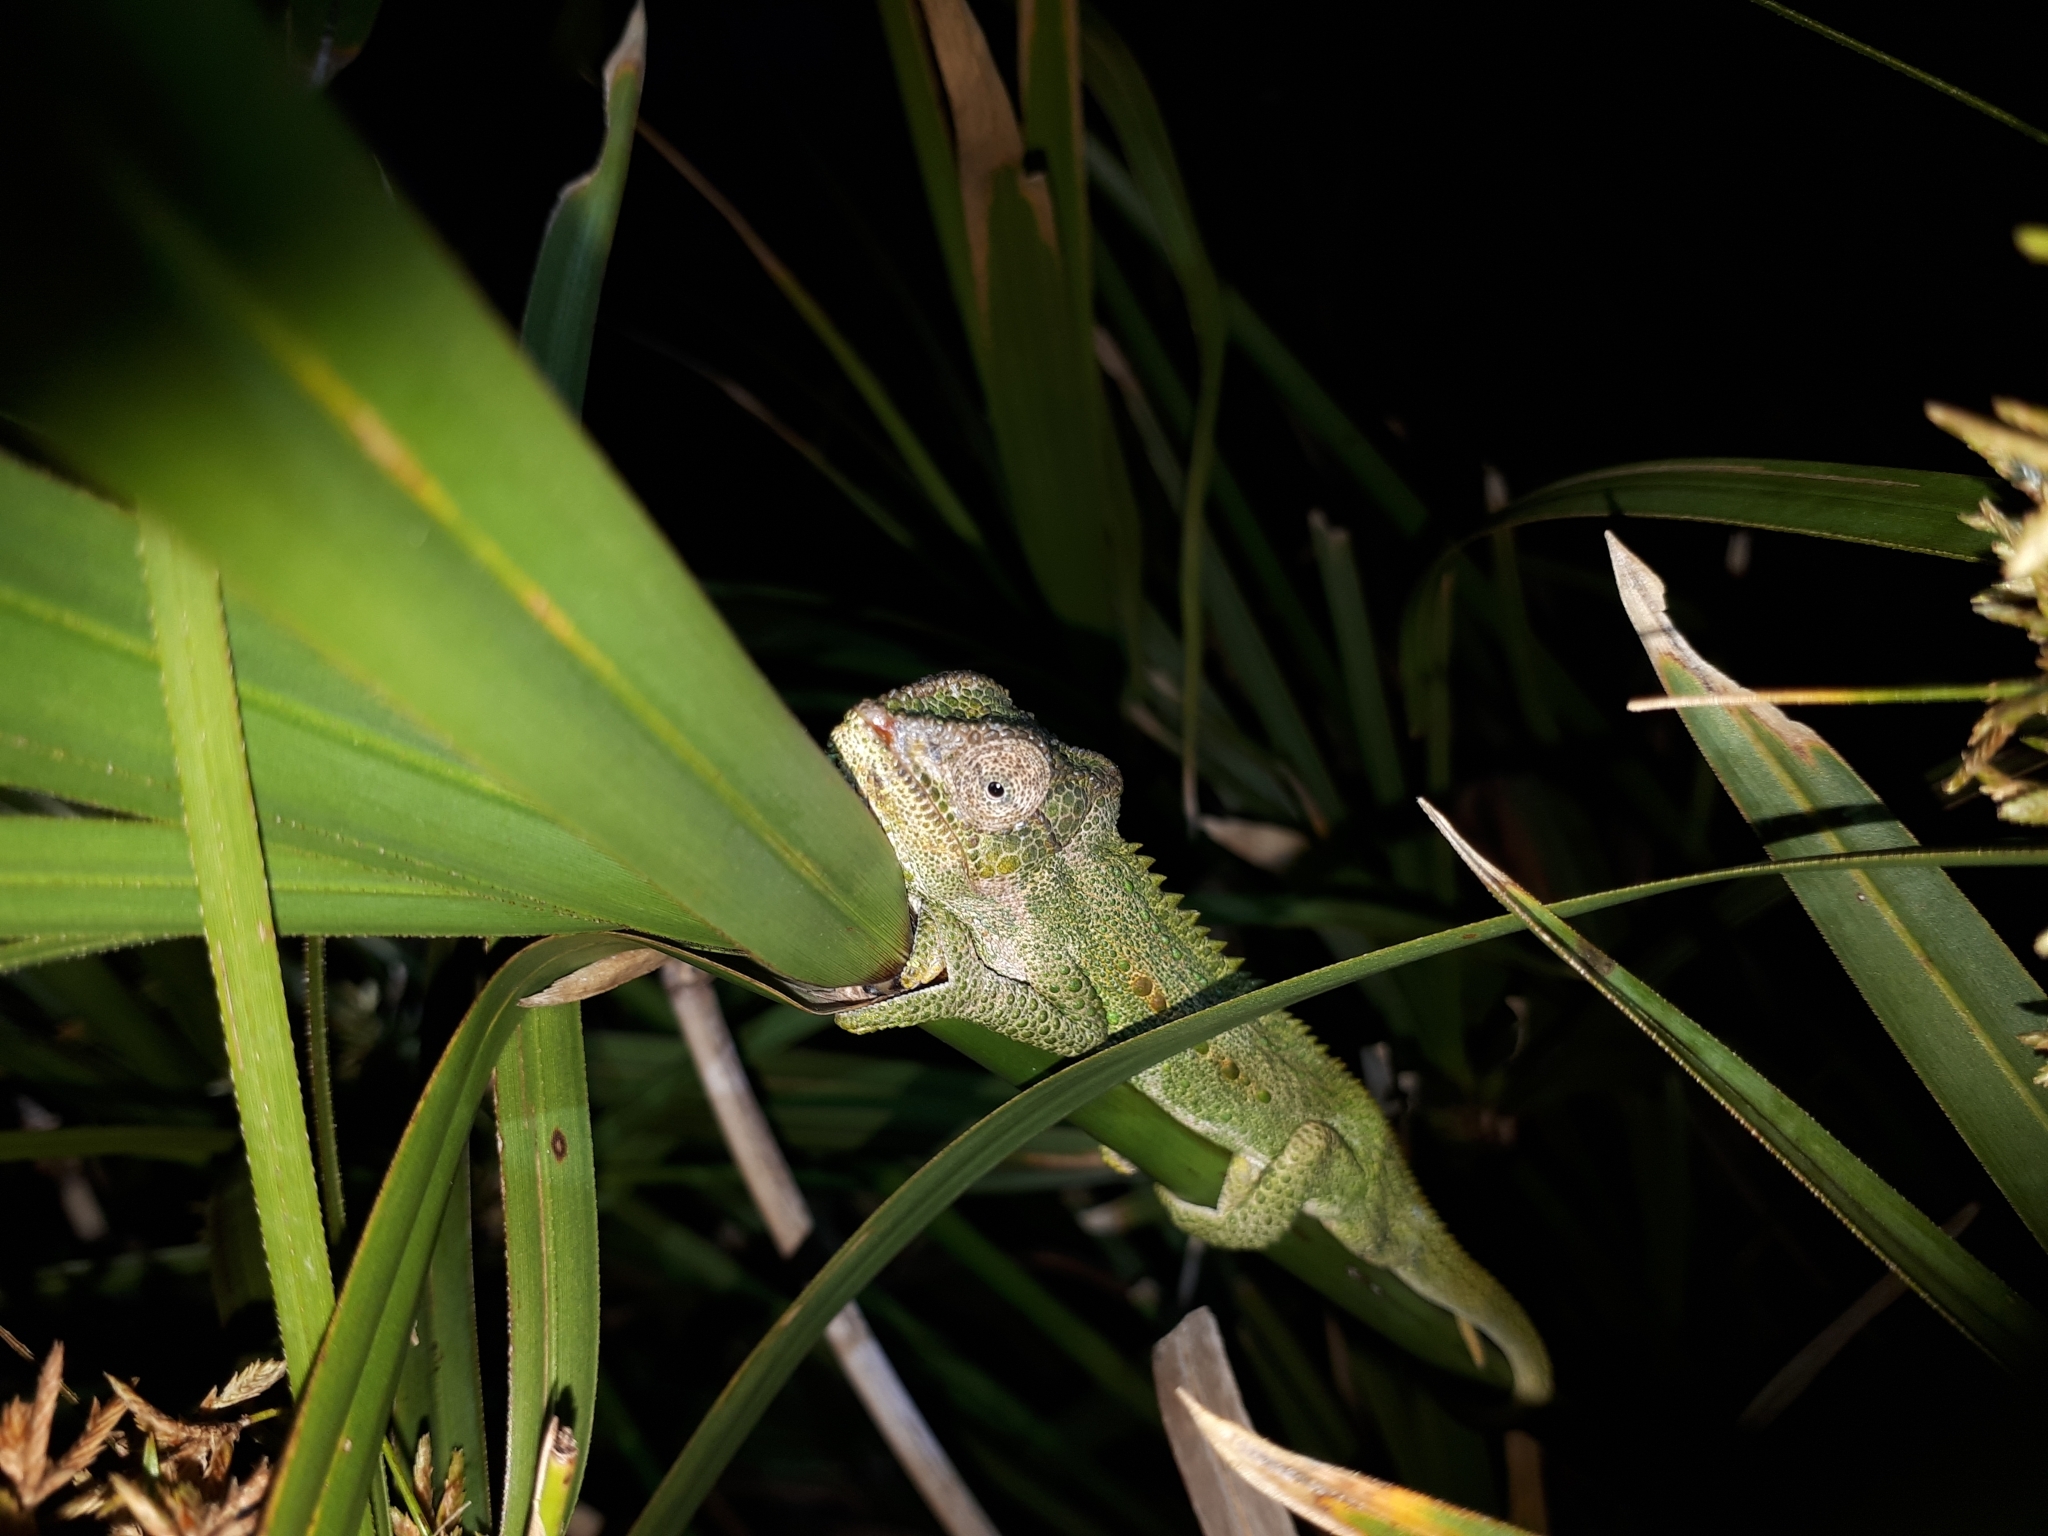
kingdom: Animalia
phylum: Chordata
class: Squamata
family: Chamaeleonidae
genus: Bradypodion
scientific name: Bradypodion pumilum
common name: Cape dwarf chameleon
